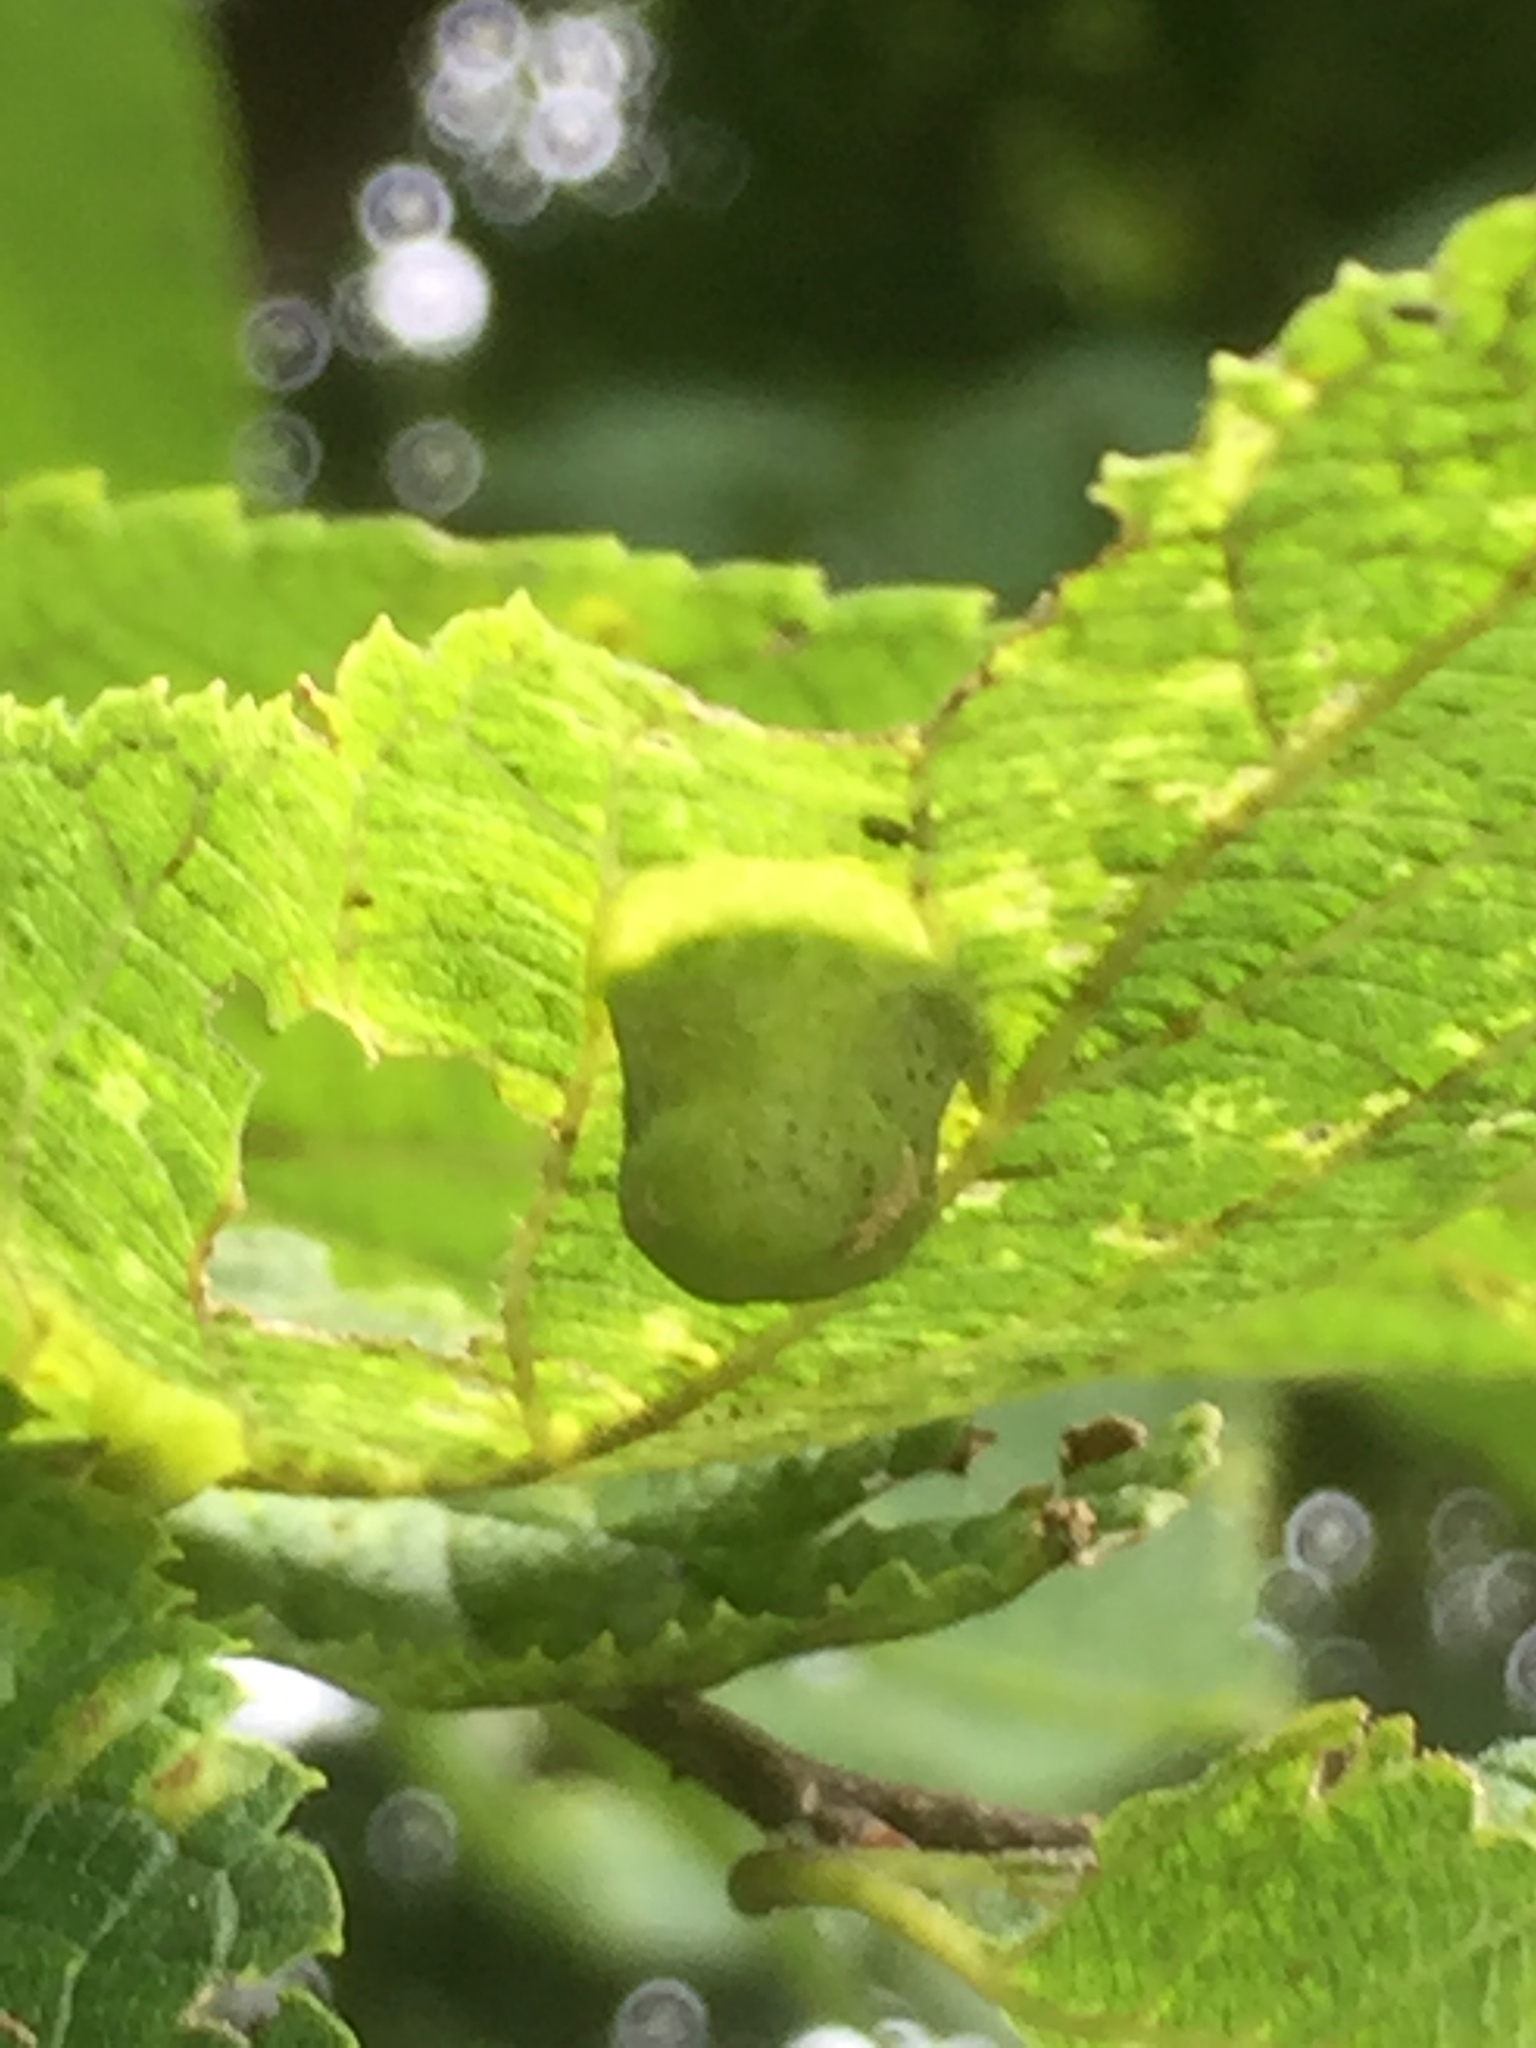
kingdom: Animalia
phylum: Arthropoda
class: Insecta
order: Hemiptera
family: Aphalaridae
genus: Pachypsylla
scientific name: Pachypsylla celtidismamma
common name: Hackberry nipplegall psyllid
